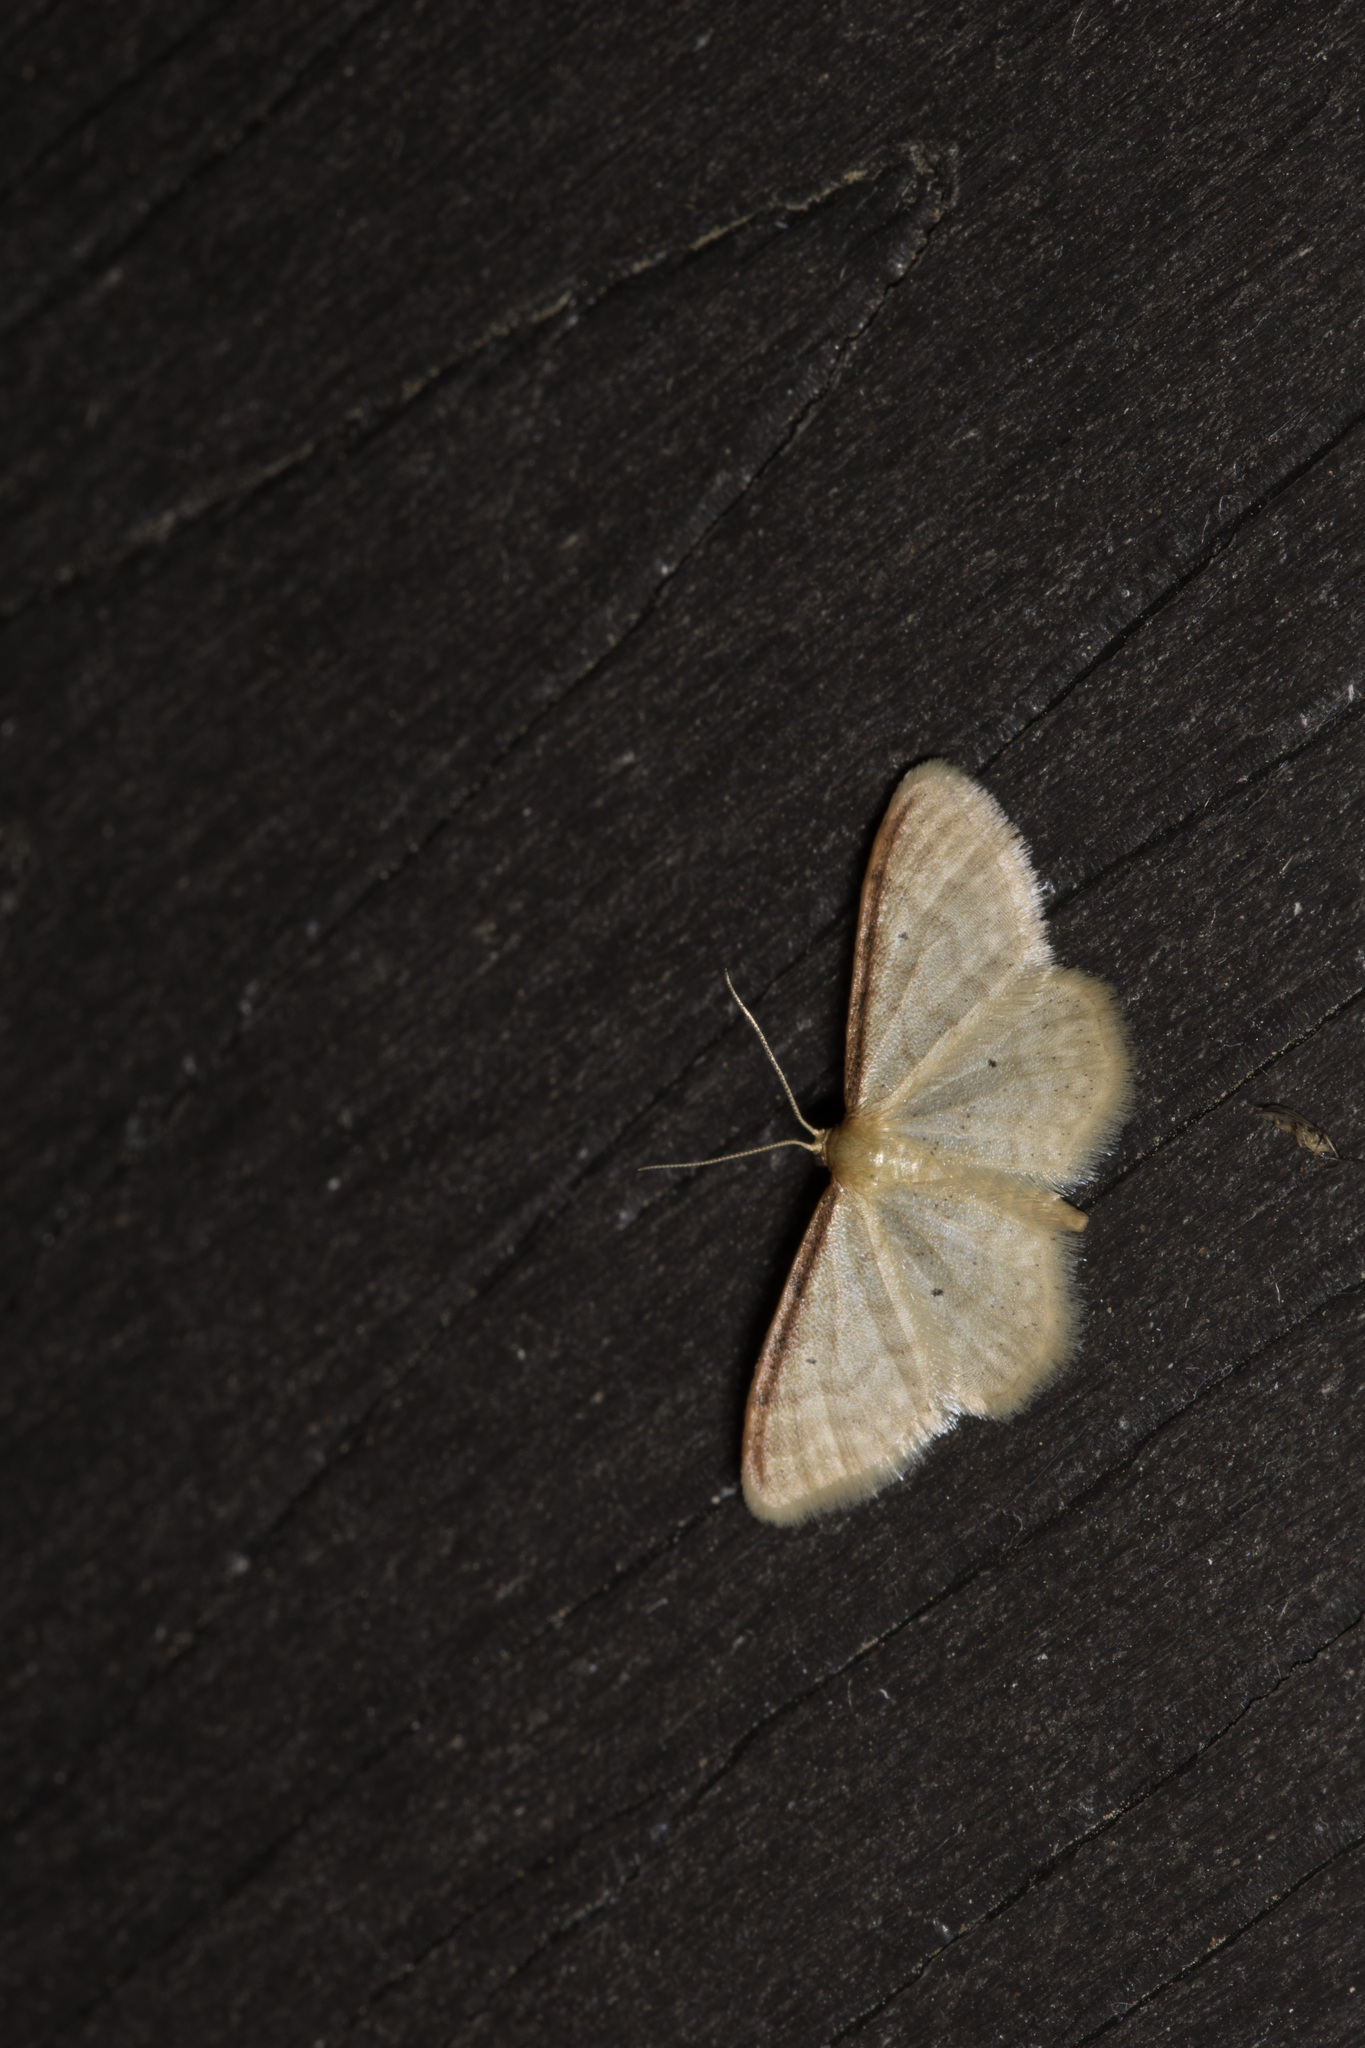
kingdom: Animalia
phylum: Arthropoda
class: Insecta
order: Lepidoptera
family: Geometridae
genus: Idaea
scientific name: Idaea humiliata
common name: Isle of wight wave
